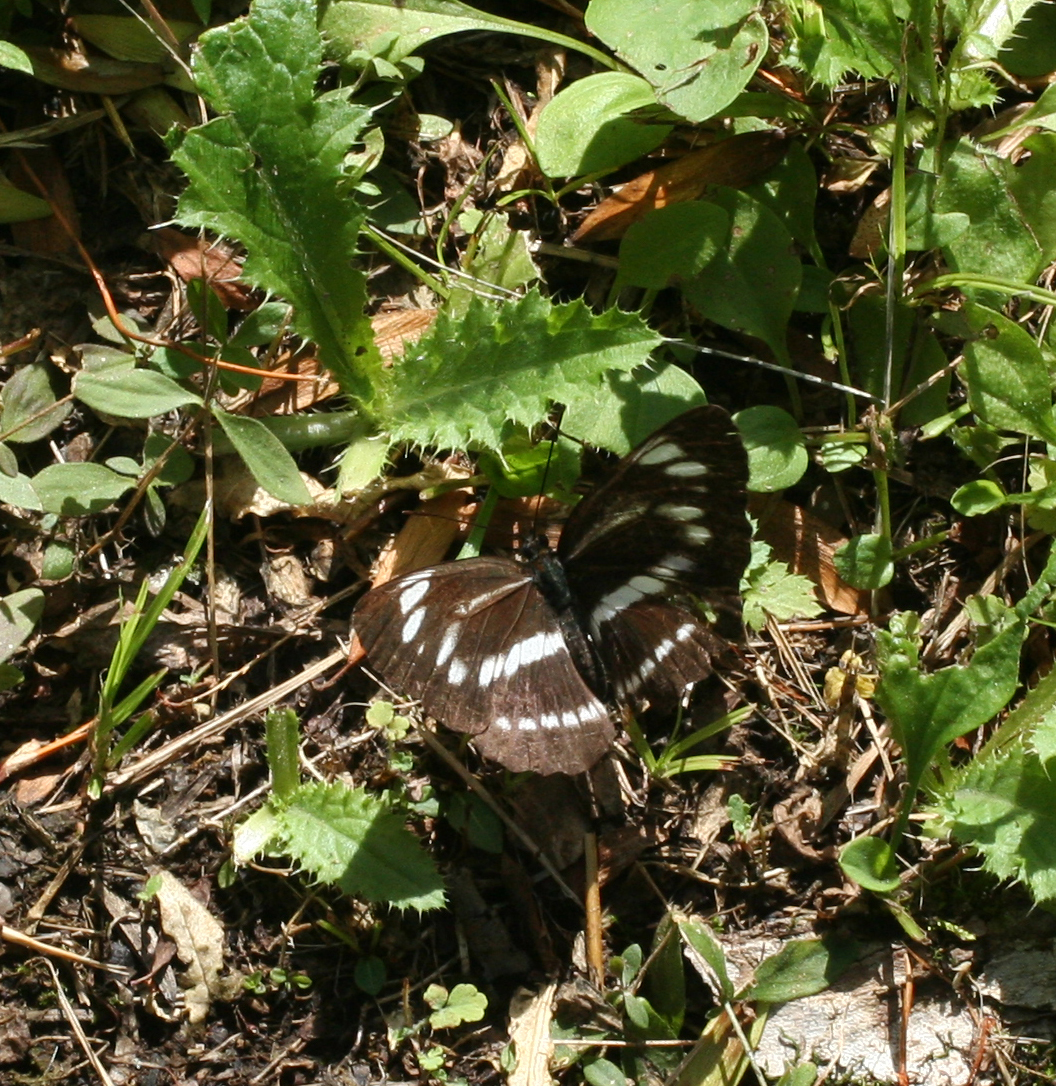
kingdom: Animalia
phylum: Arthropoda
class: Insecta
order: Lepidoptera
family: Nymphalidae
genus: Neptis
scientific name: Neptis speyeri
